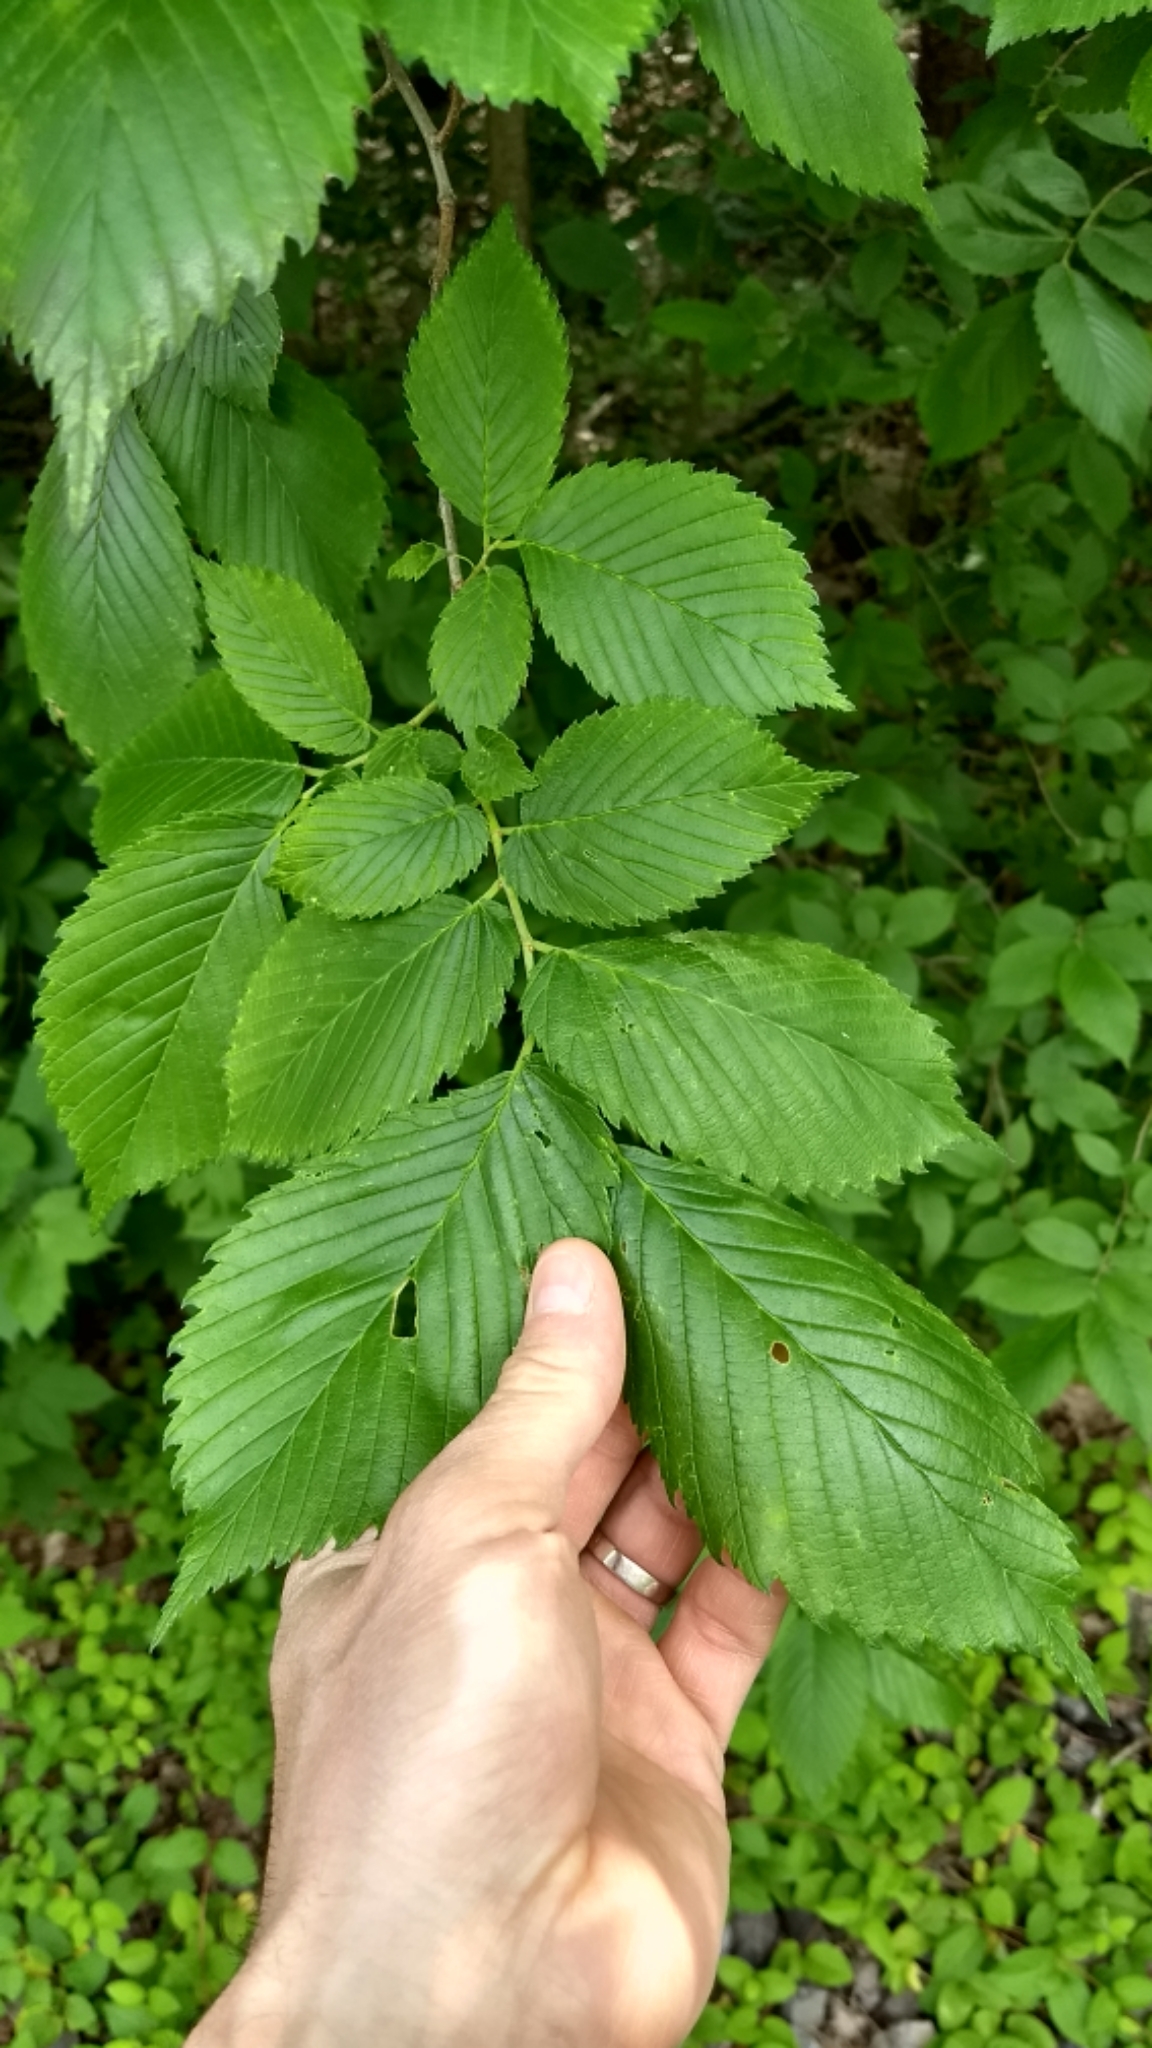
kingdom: Plantae
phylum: Tracheophyta
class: Magnoliopsida
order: Rosales
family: Ulmaceae
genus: Ulmus
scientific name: Ulmus americana
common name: American elm
